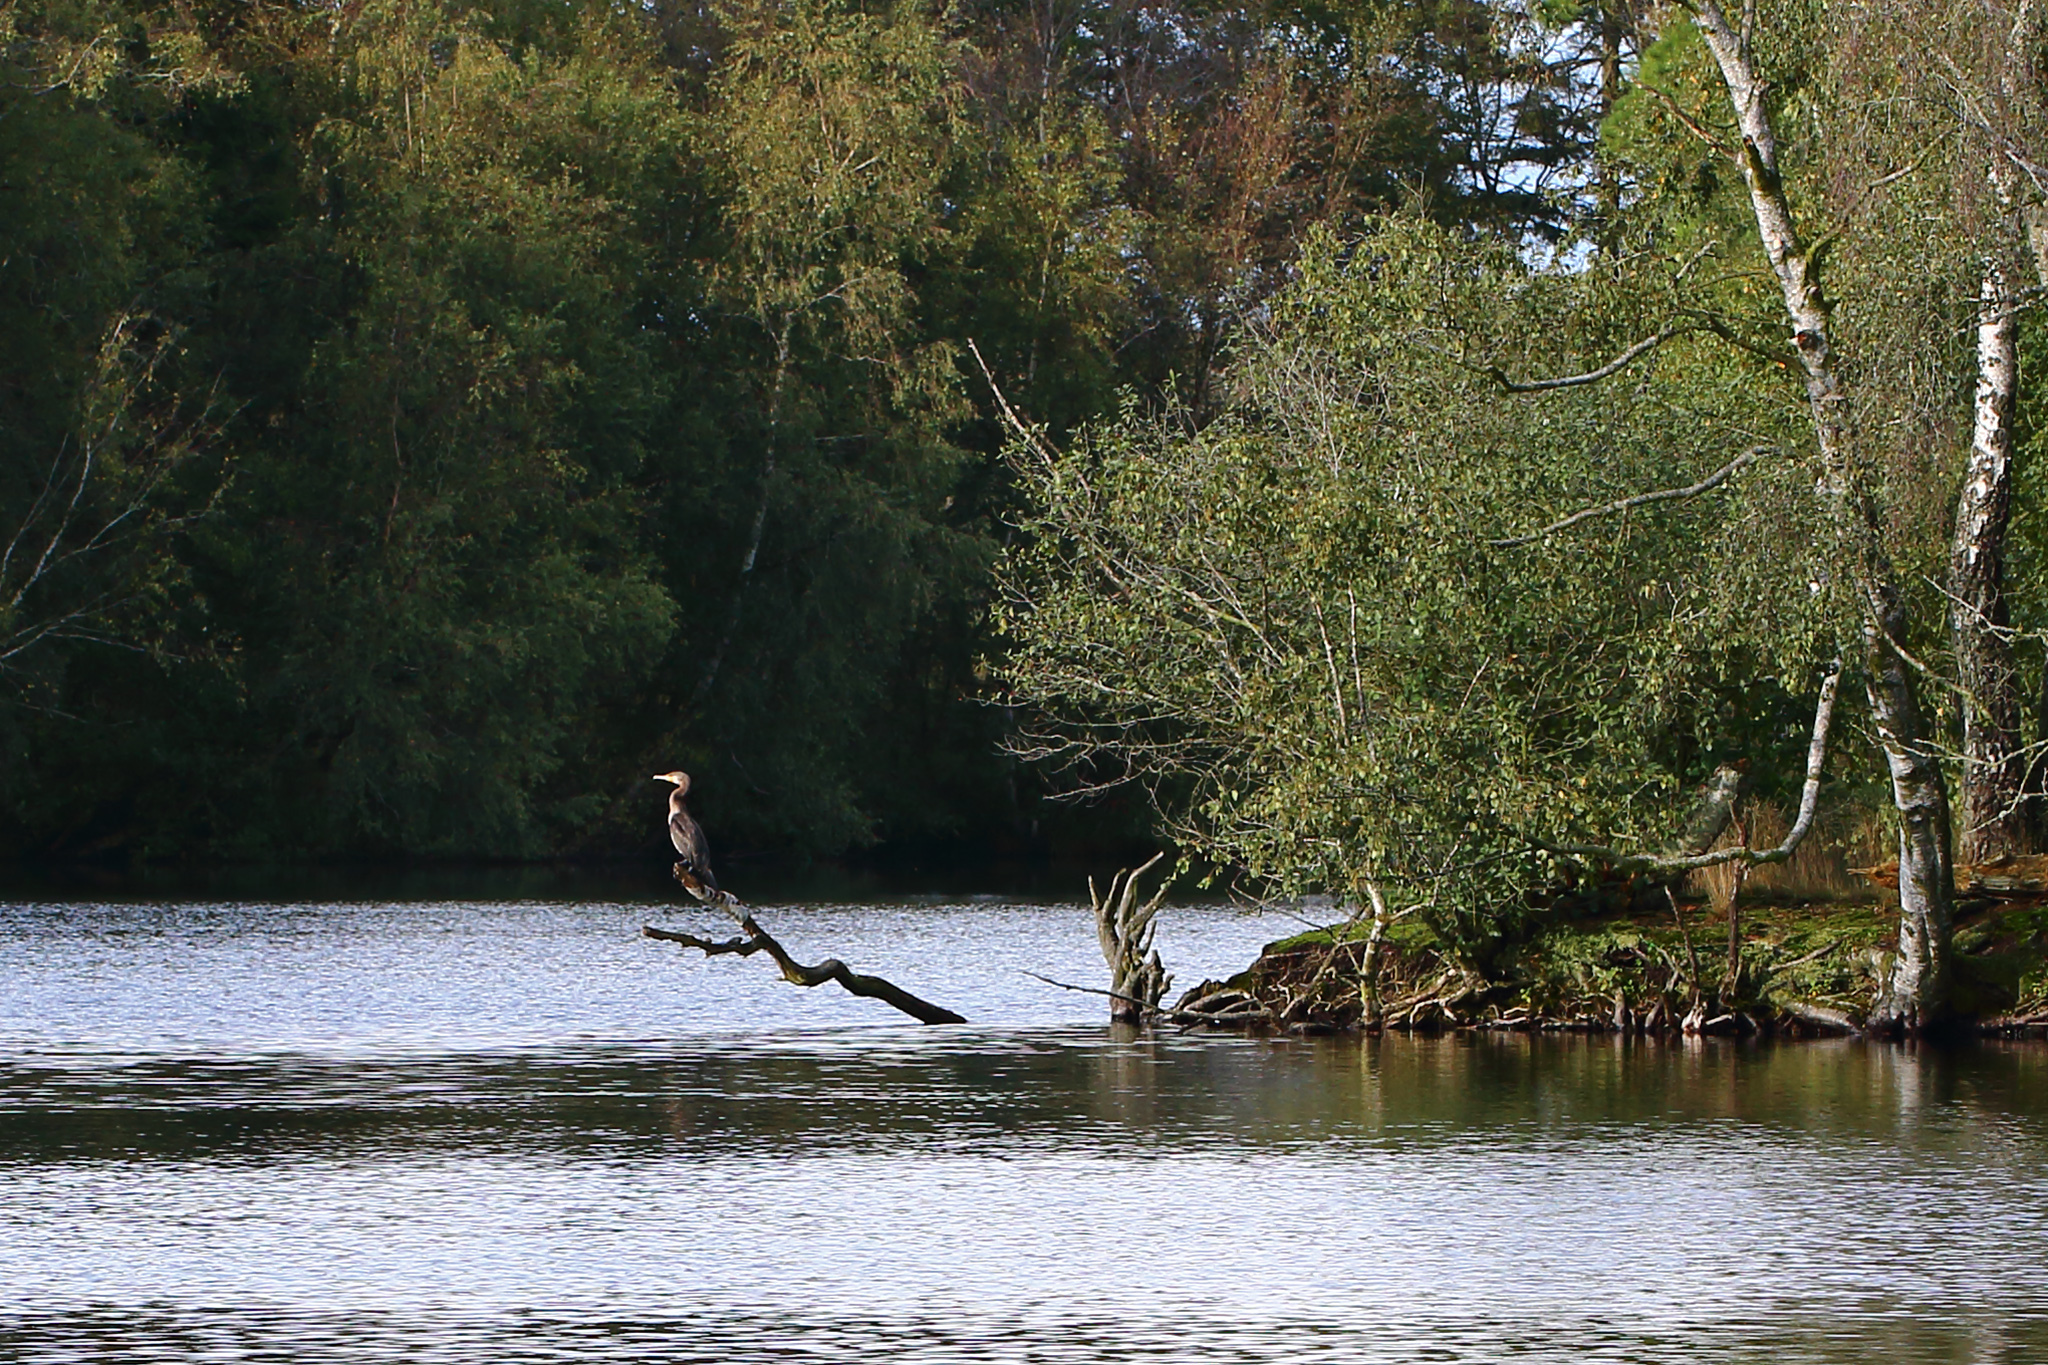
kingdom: Animalia
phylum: Chordata
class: Aves
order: Suliformes
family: Phalacrocoracidae
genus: Phalacrocorax
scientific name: Phalacrocorax carbo
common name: Great cormorant
